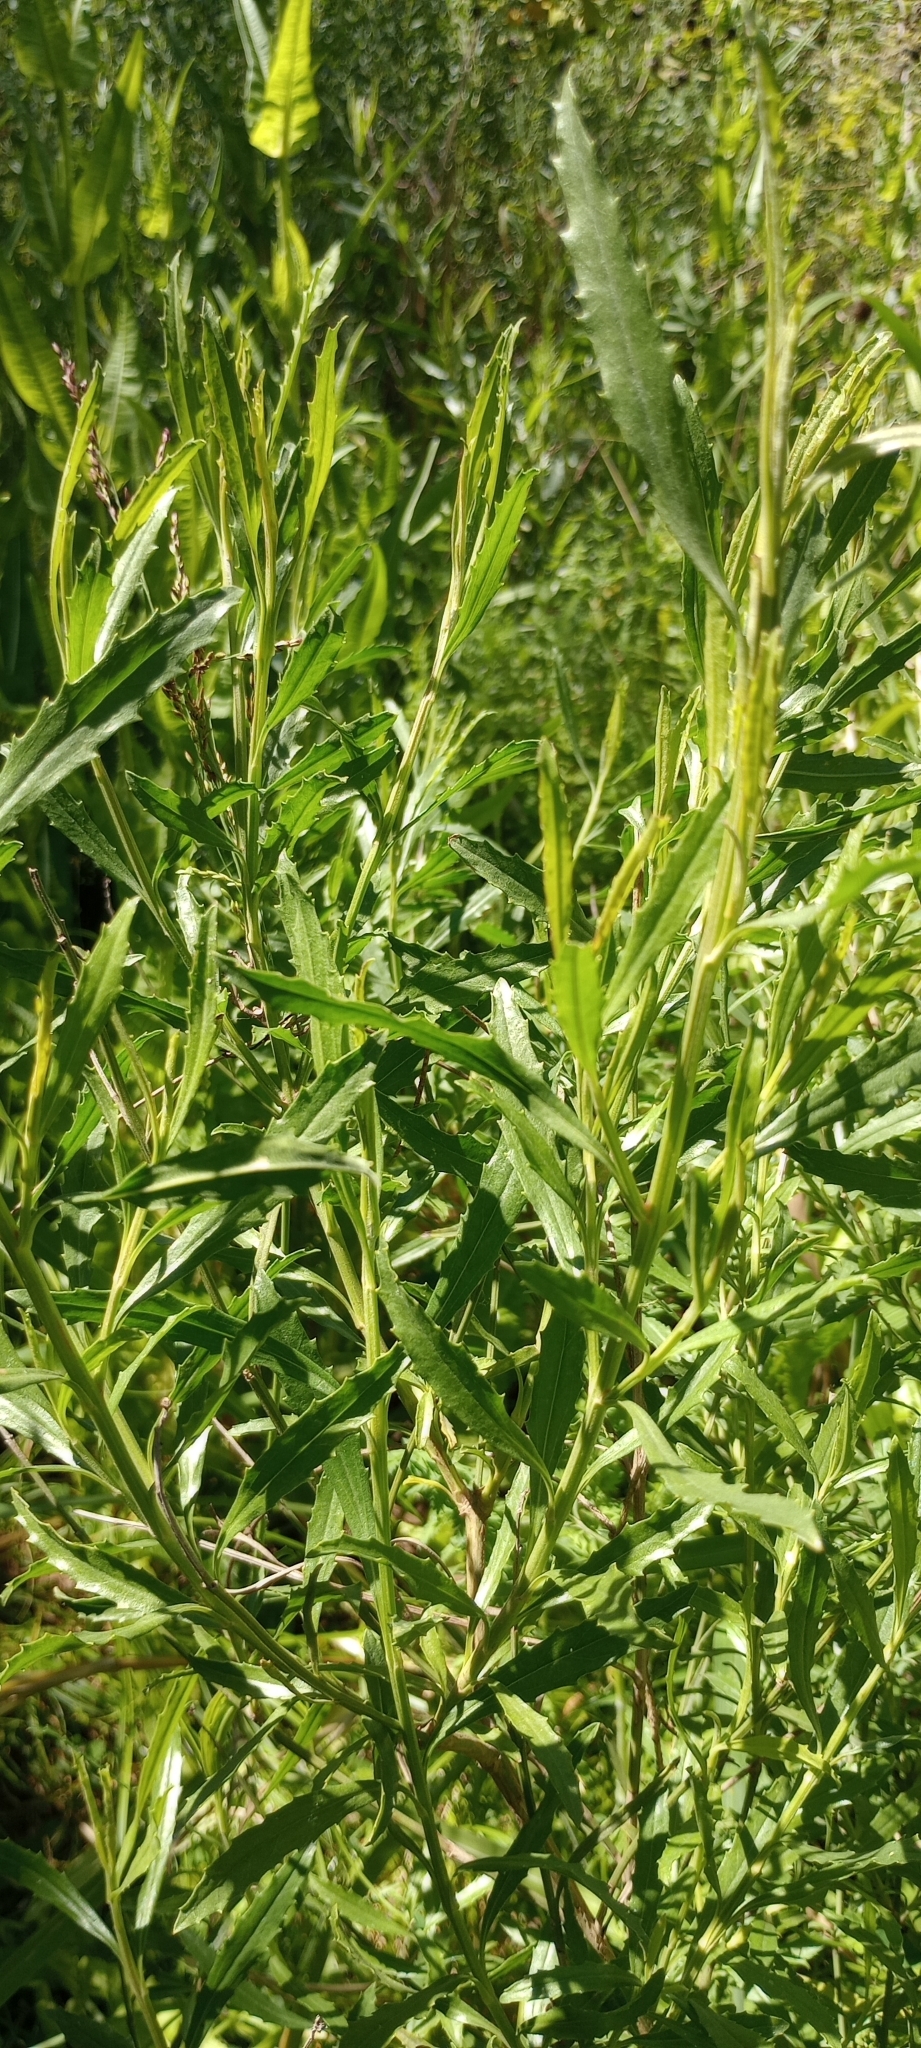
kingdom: Plantae
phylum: Tracheophyta
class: Magnoliopsida
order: Asterales
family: Asteraceae
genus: Baccharis
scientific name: Baccharis spicata
